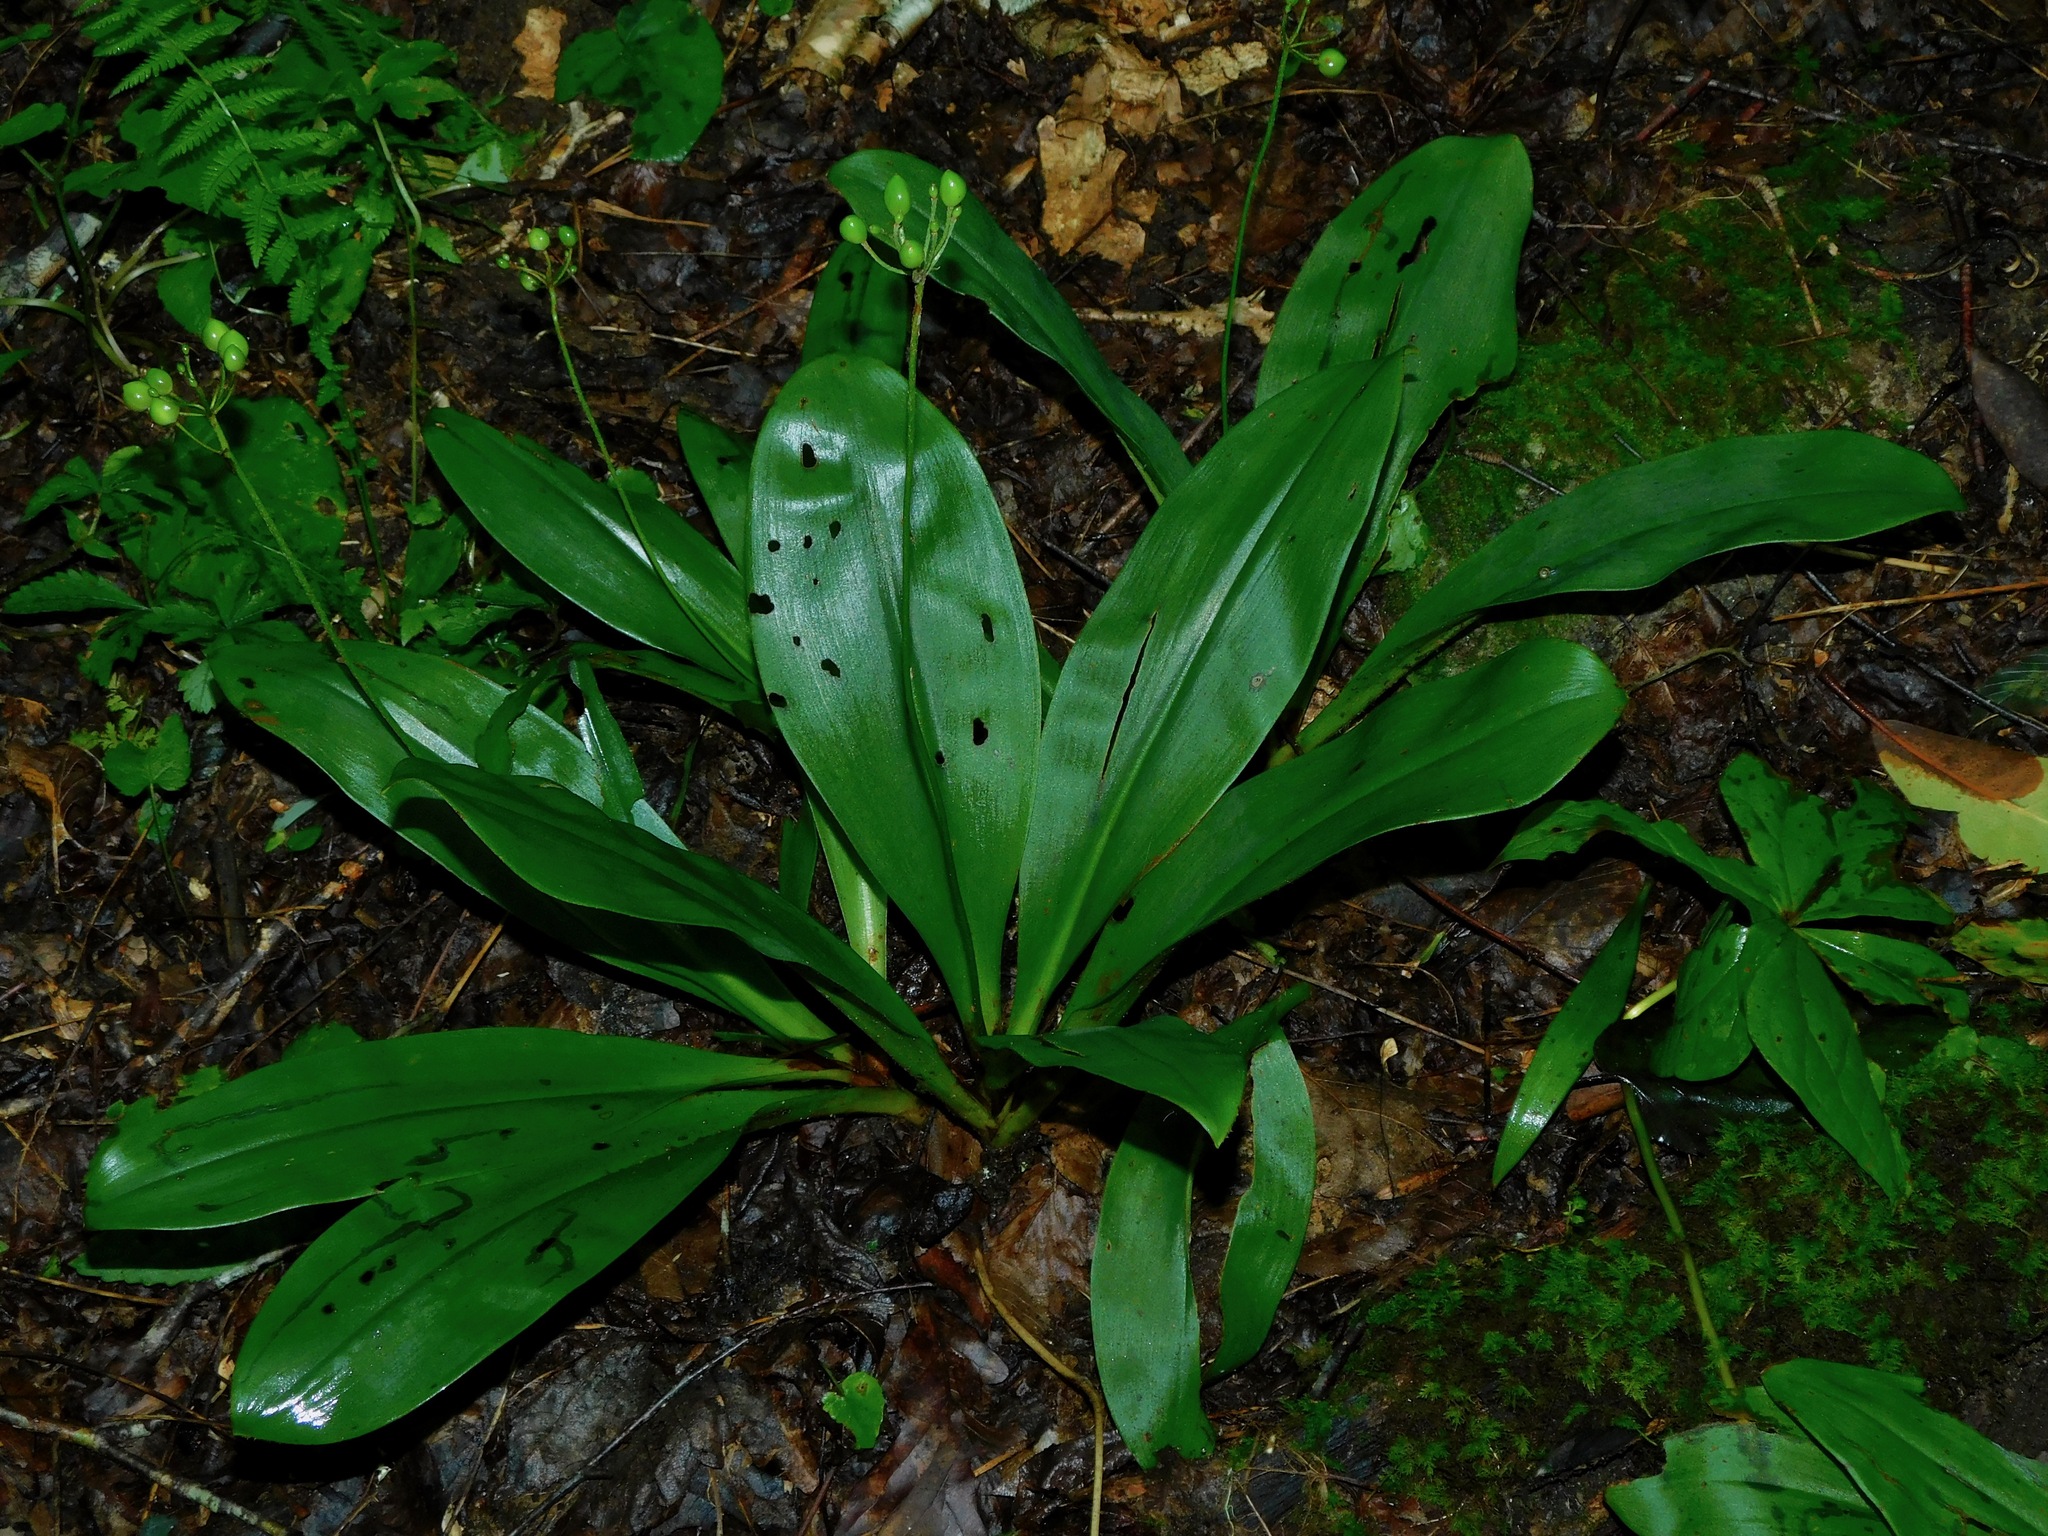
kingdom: Plantae
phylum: Tracheophyta
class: Liliopsida
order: Liliales
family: Liliaceae
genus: Clintonia
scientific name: Clintonia umbellulata
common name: Speckle wood-lily
